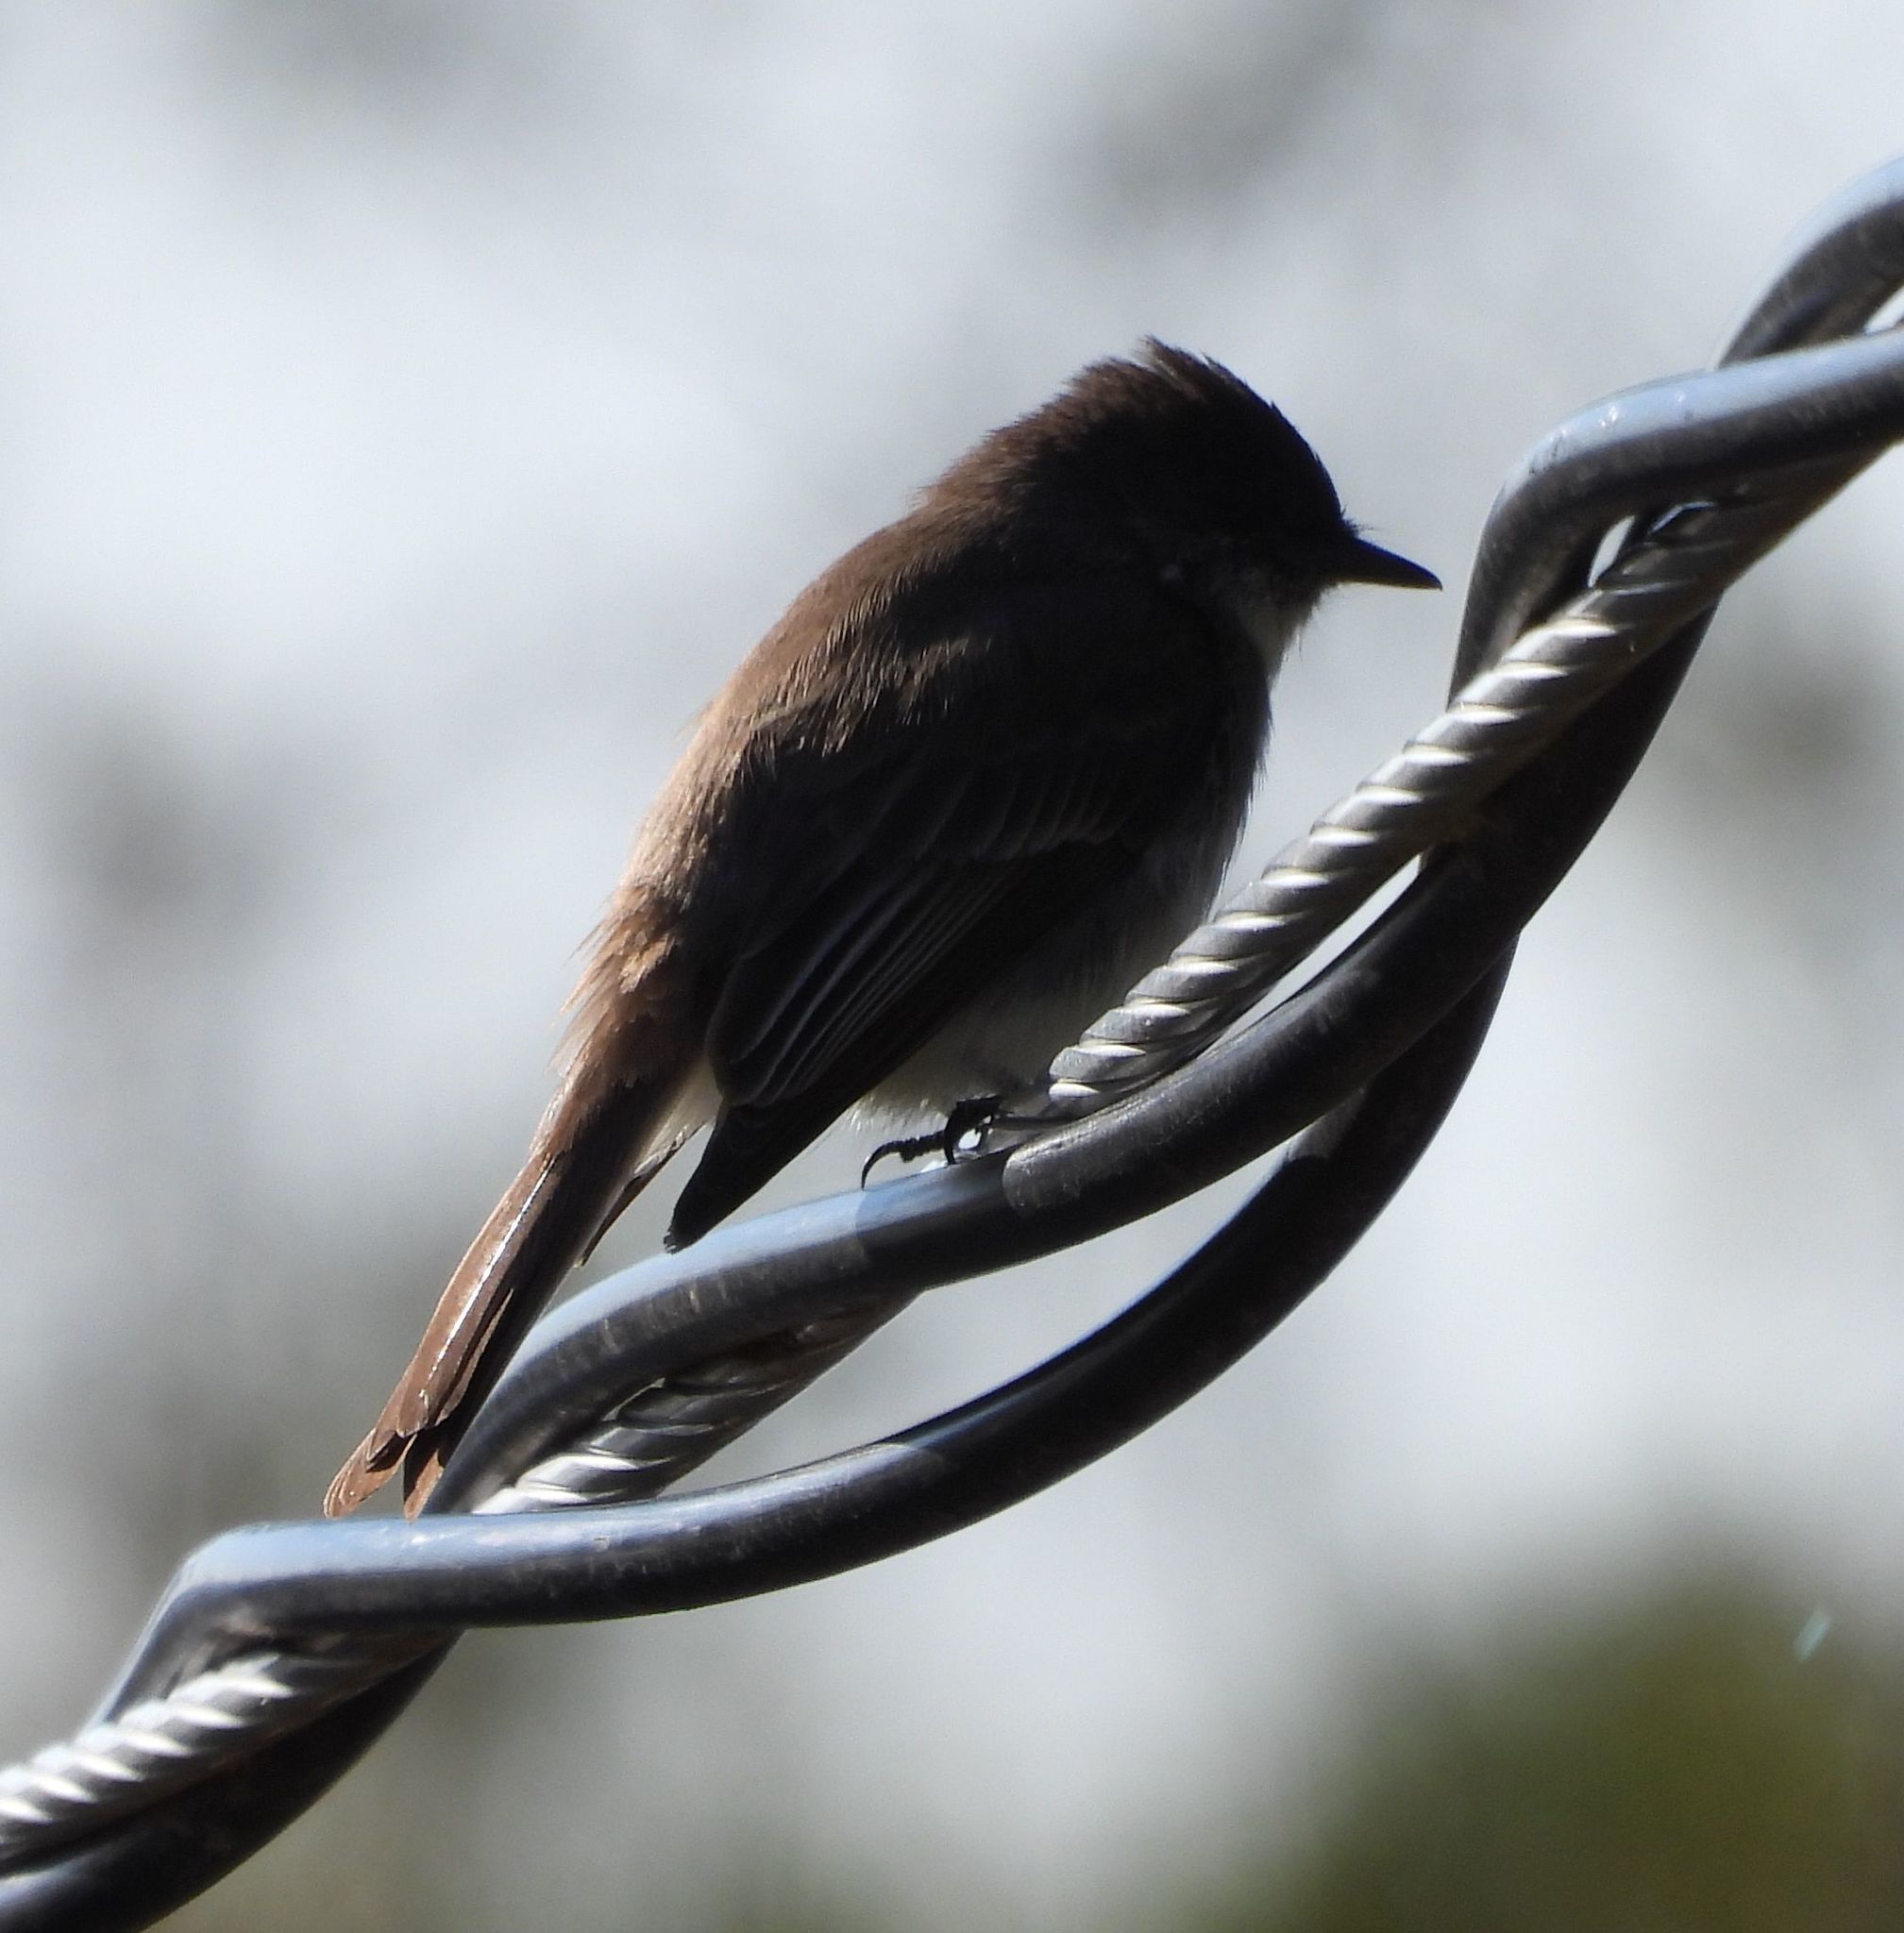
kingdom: Animalia
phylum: Chordata
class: Aves
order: Passeriformes
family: Tyrannidae
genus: Sayornis
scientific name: Sayornis phoebe
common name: Eastern phoebe
